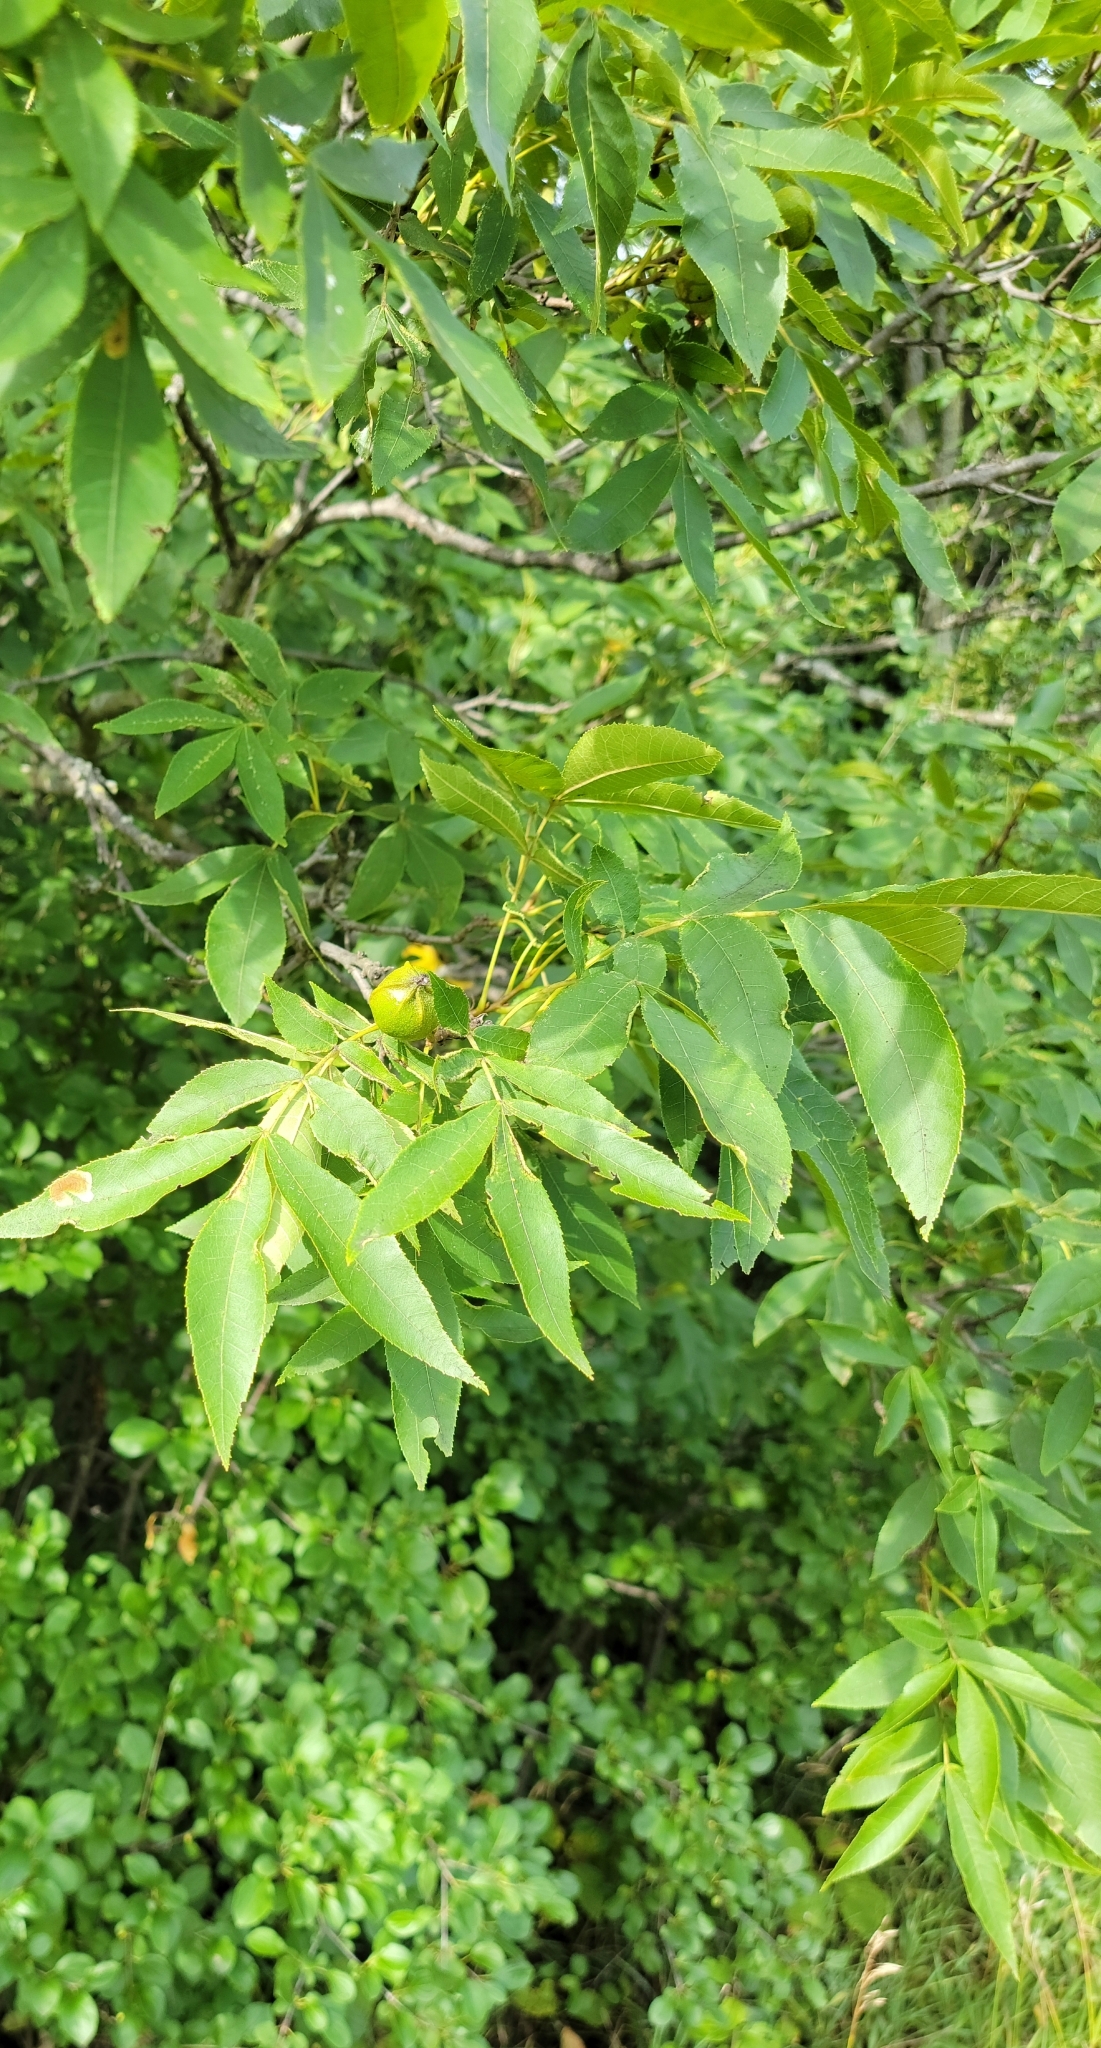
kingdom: Plantae
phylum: Tracheophyta
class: Magnoliopsida
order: Fagales
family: Juglandaceae
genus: Carya
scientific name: Carya cordiformis
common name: Bitternut hickory
